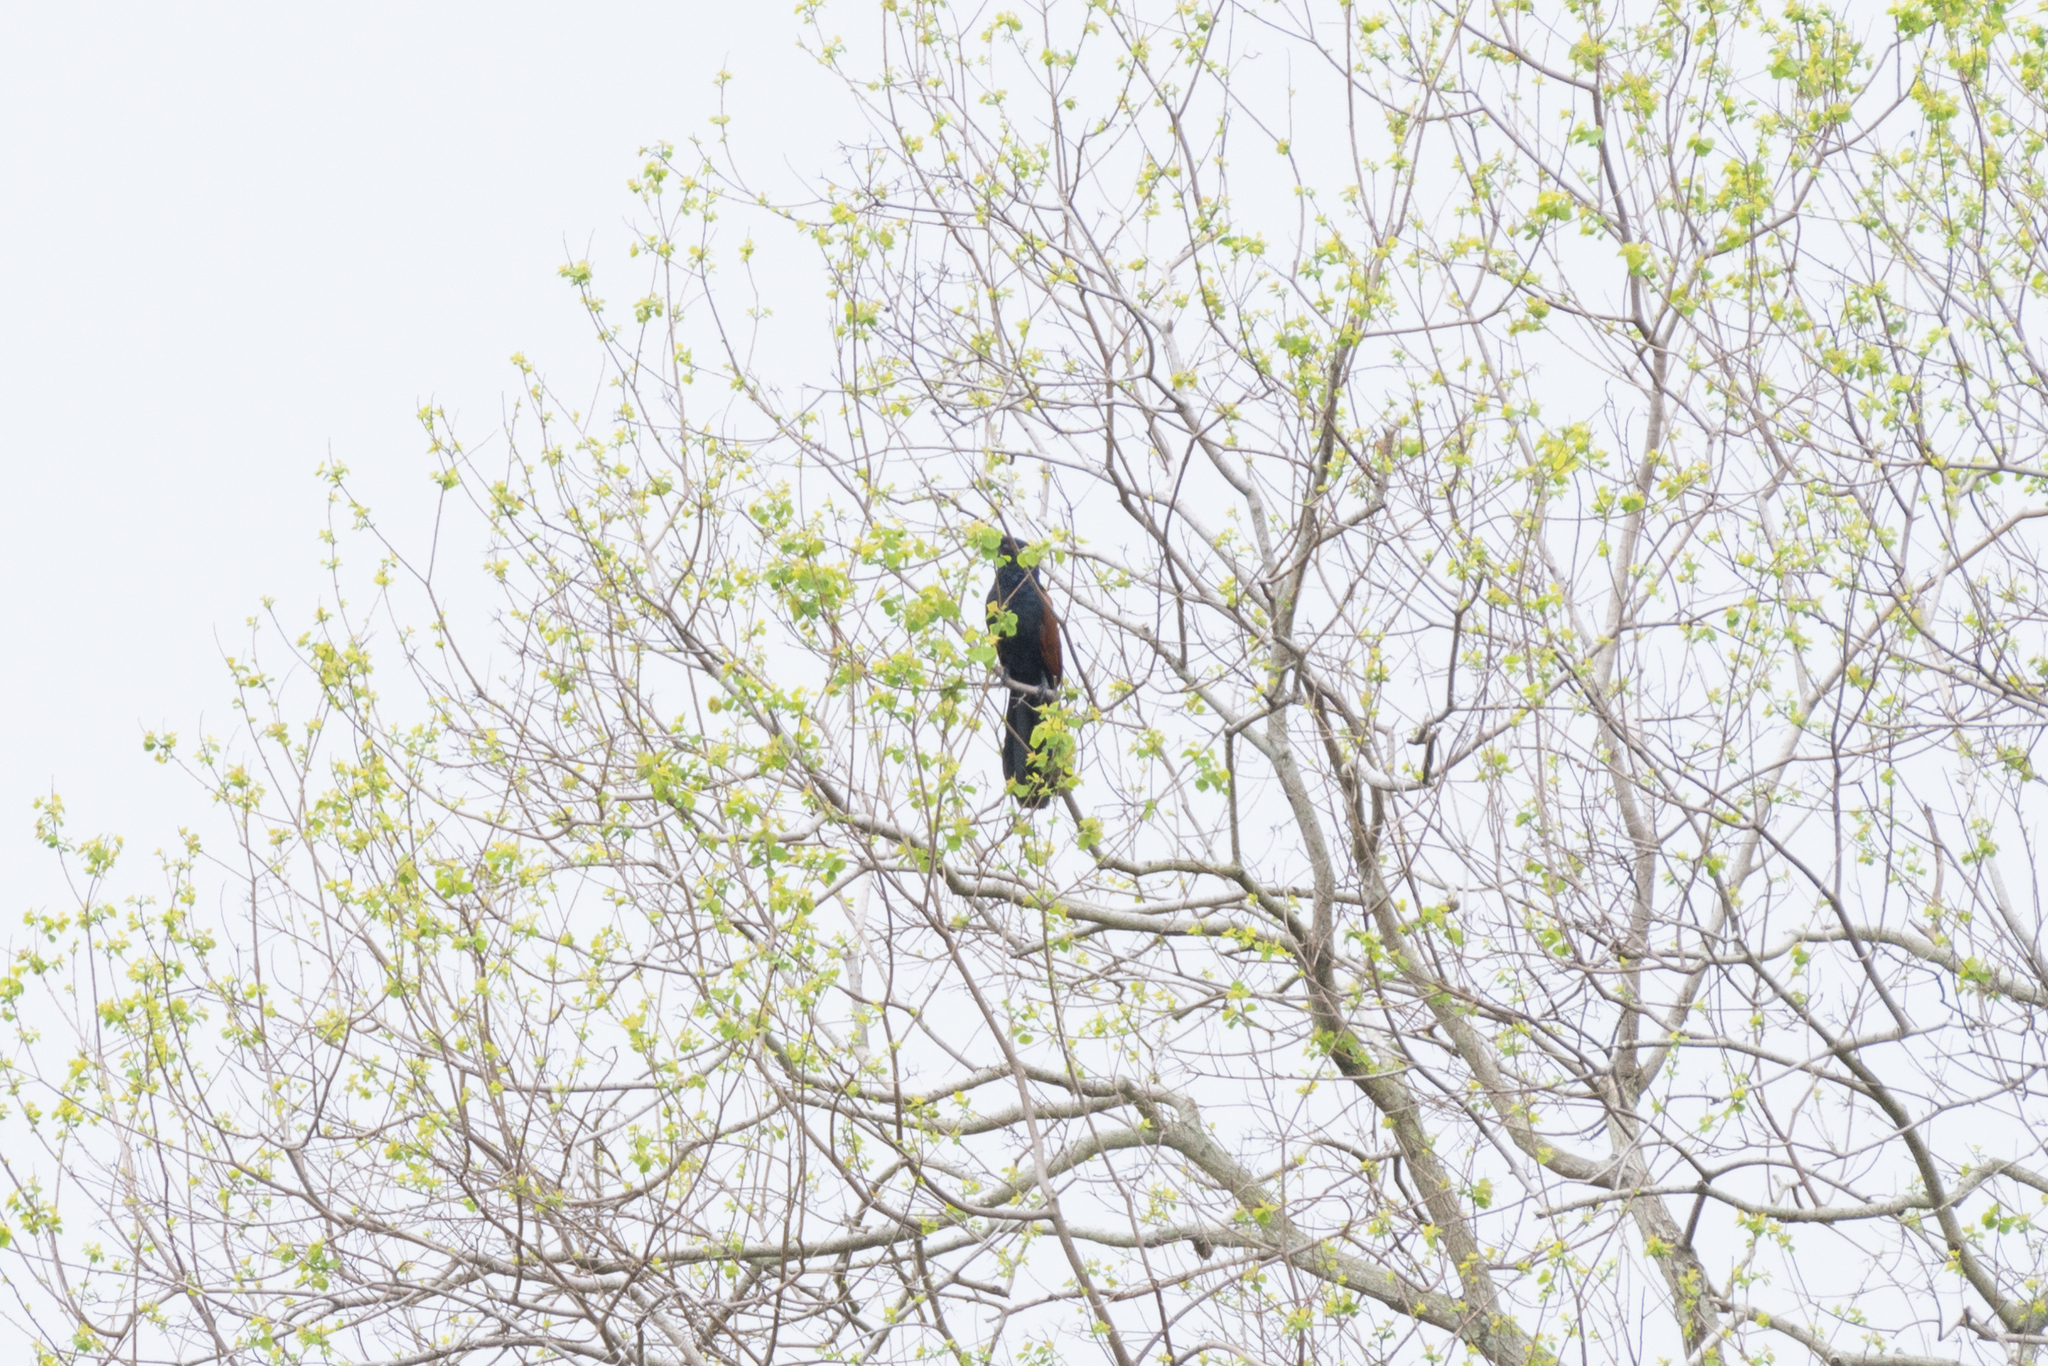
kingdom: Animalia
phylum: Chordata
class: Aves
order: Cuculiformes
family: Cuculidae
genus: Centropus
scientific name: Centropus sinensis
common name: Greater coucal
